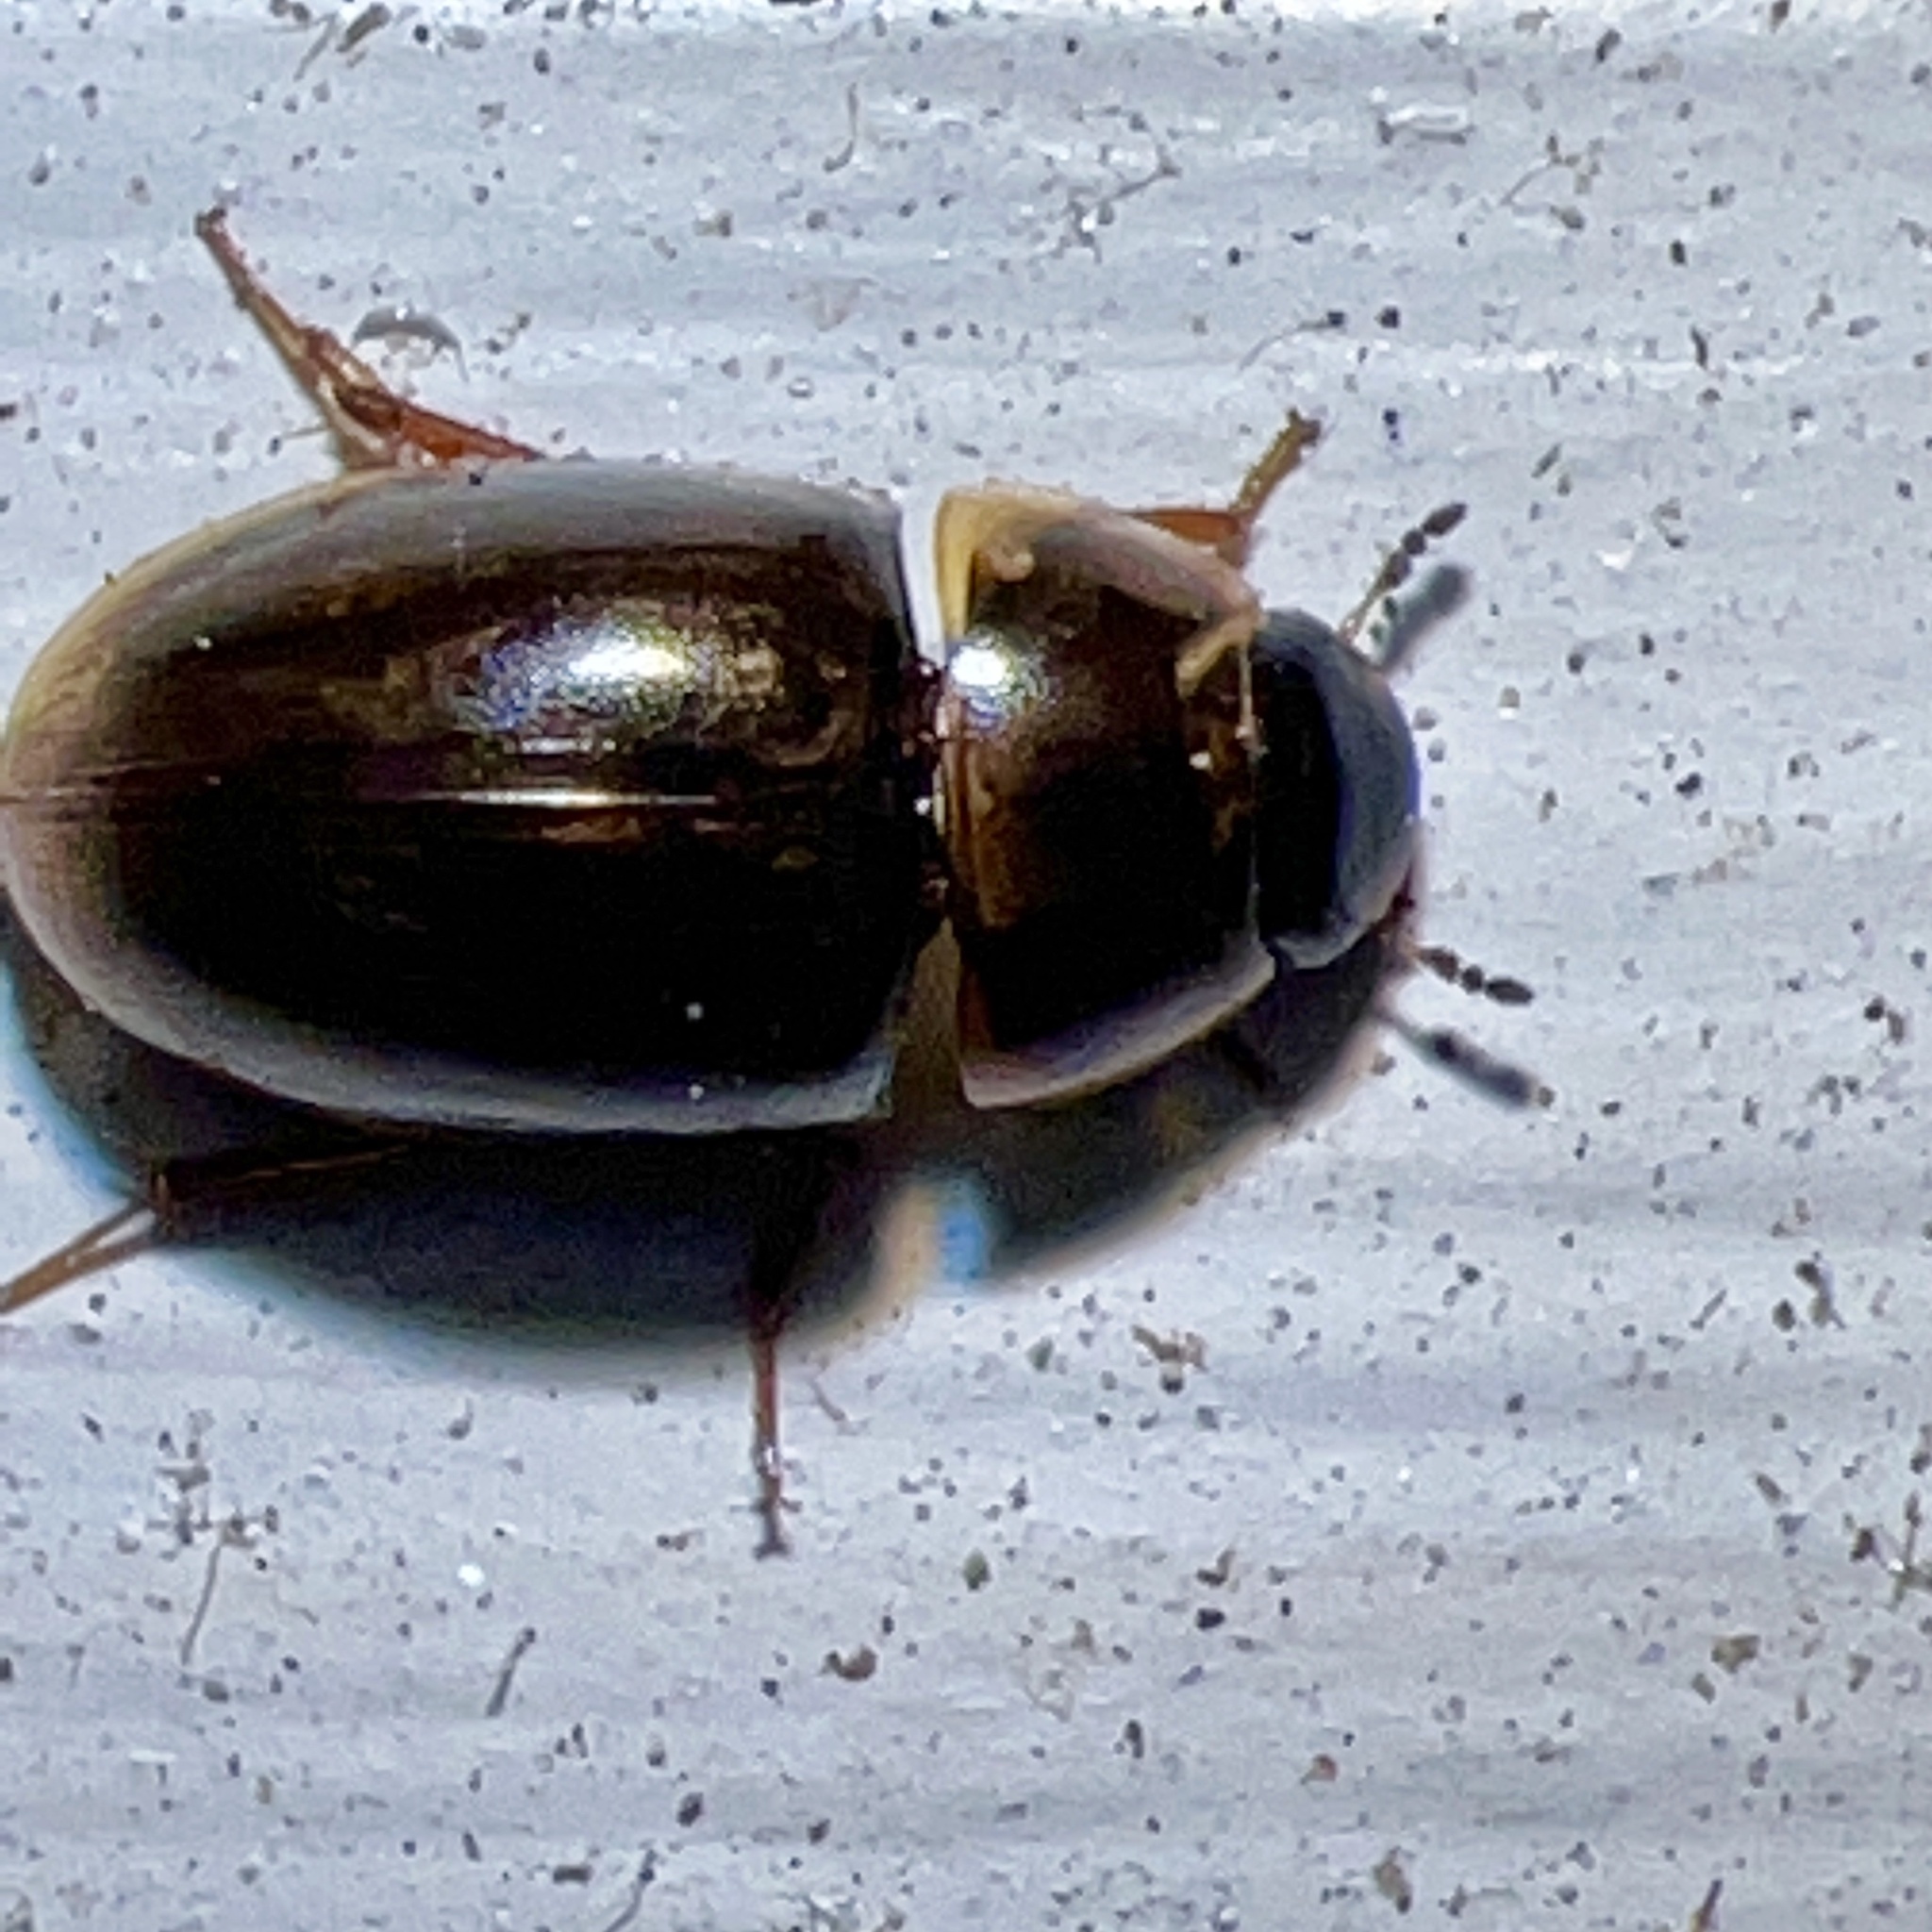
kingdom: Animalia
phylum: Arthropoda
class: Insecta
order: Coleoptera
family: Hydrophilidae
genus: Enochrus
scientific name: Enochrus
